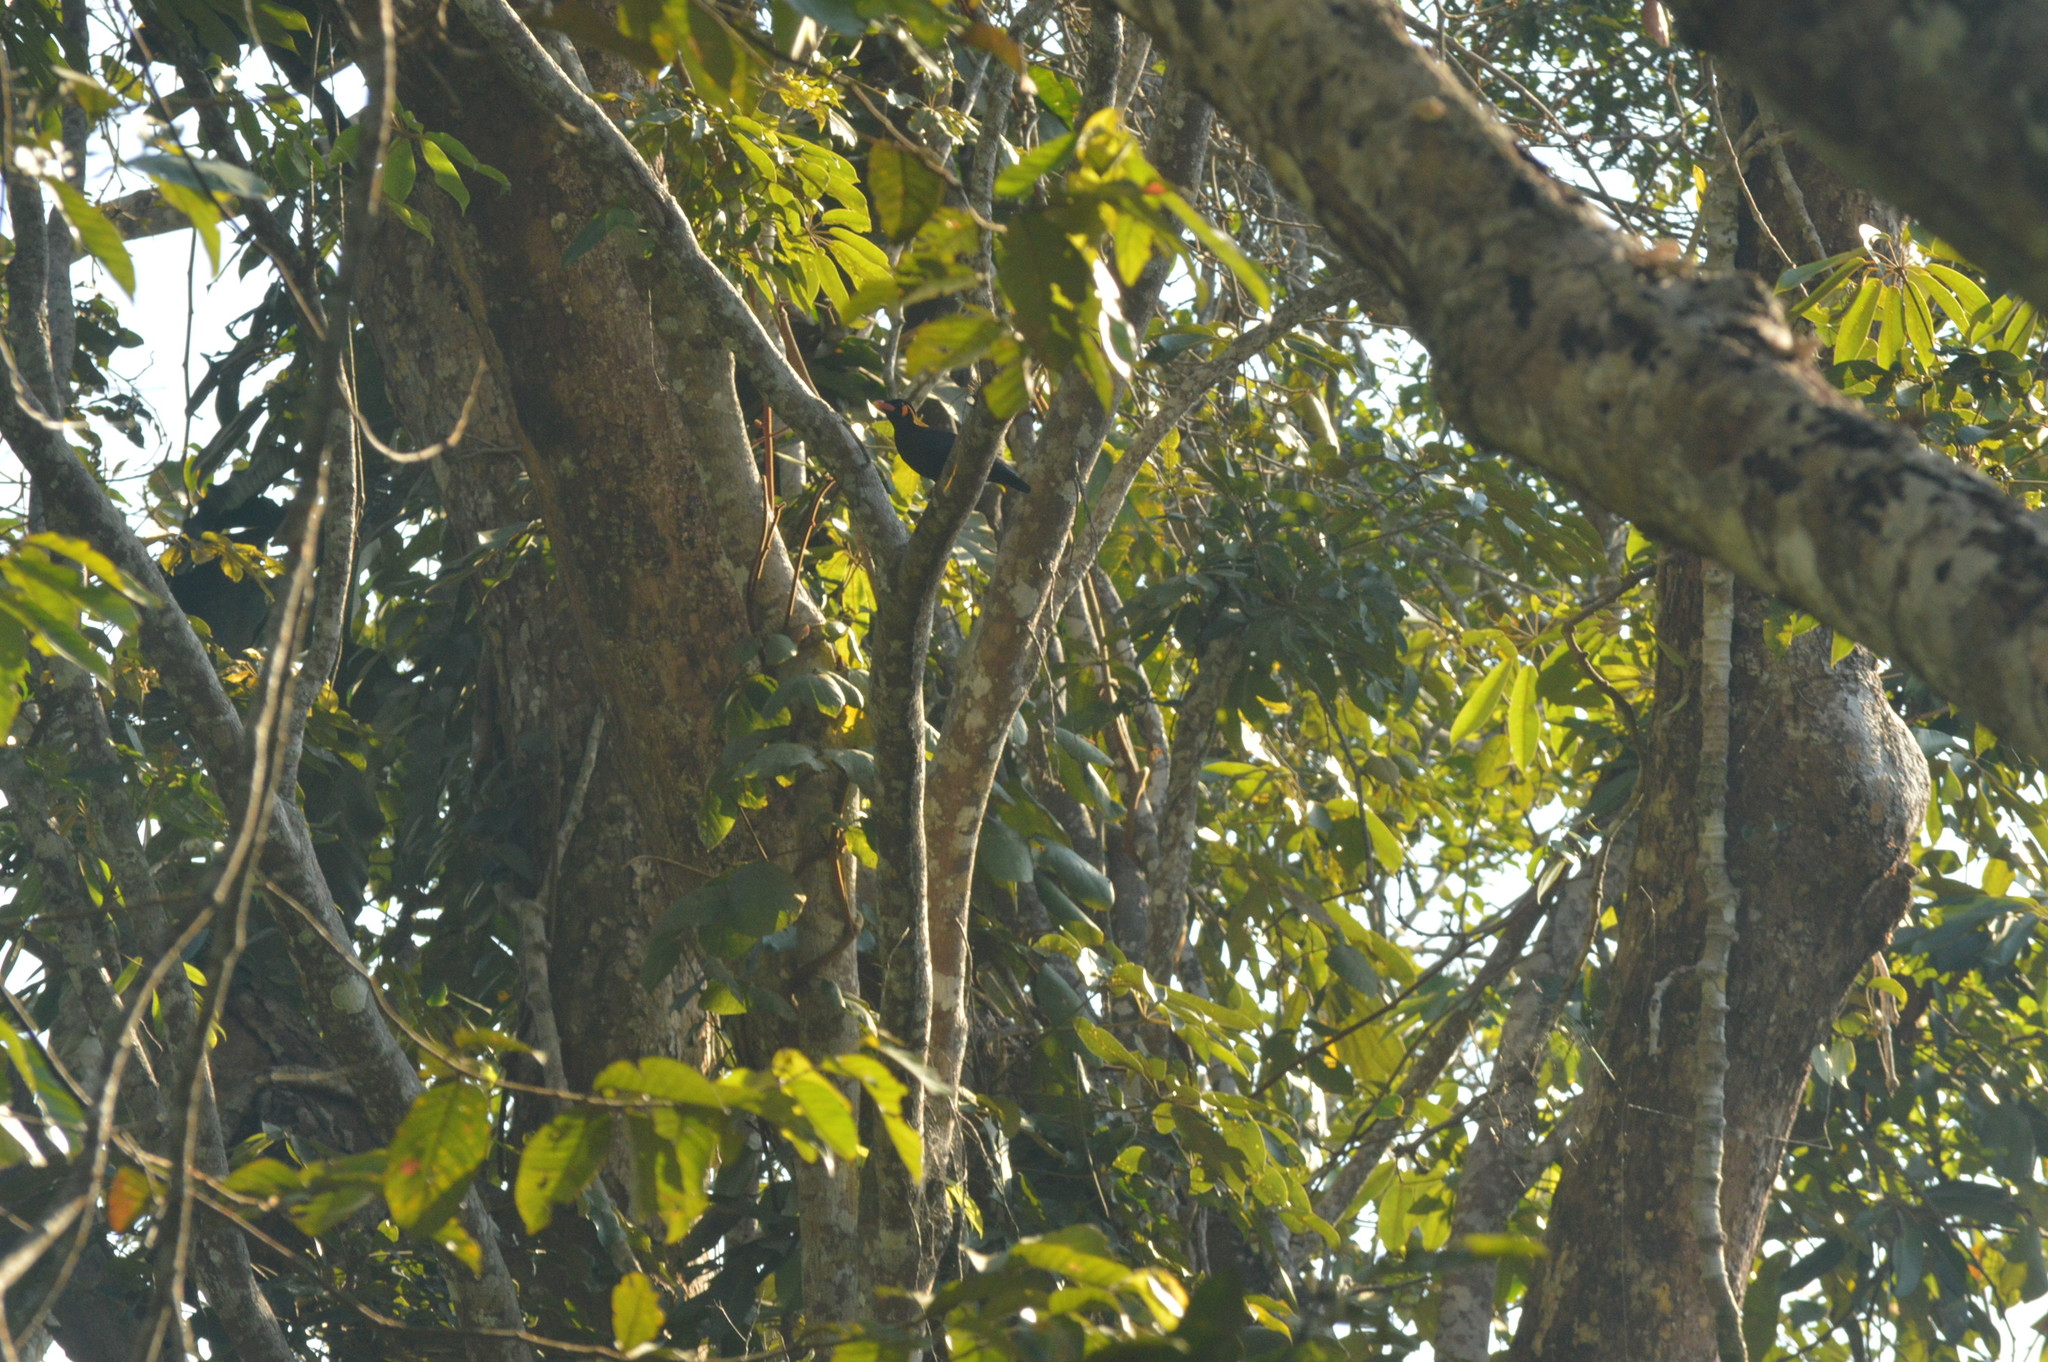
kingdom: Animalia
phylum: Chordata
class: Aves
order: Passeriformes
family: Sturnidae
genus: Gracula
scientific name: Gracula religiosa
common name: Common hill myna
